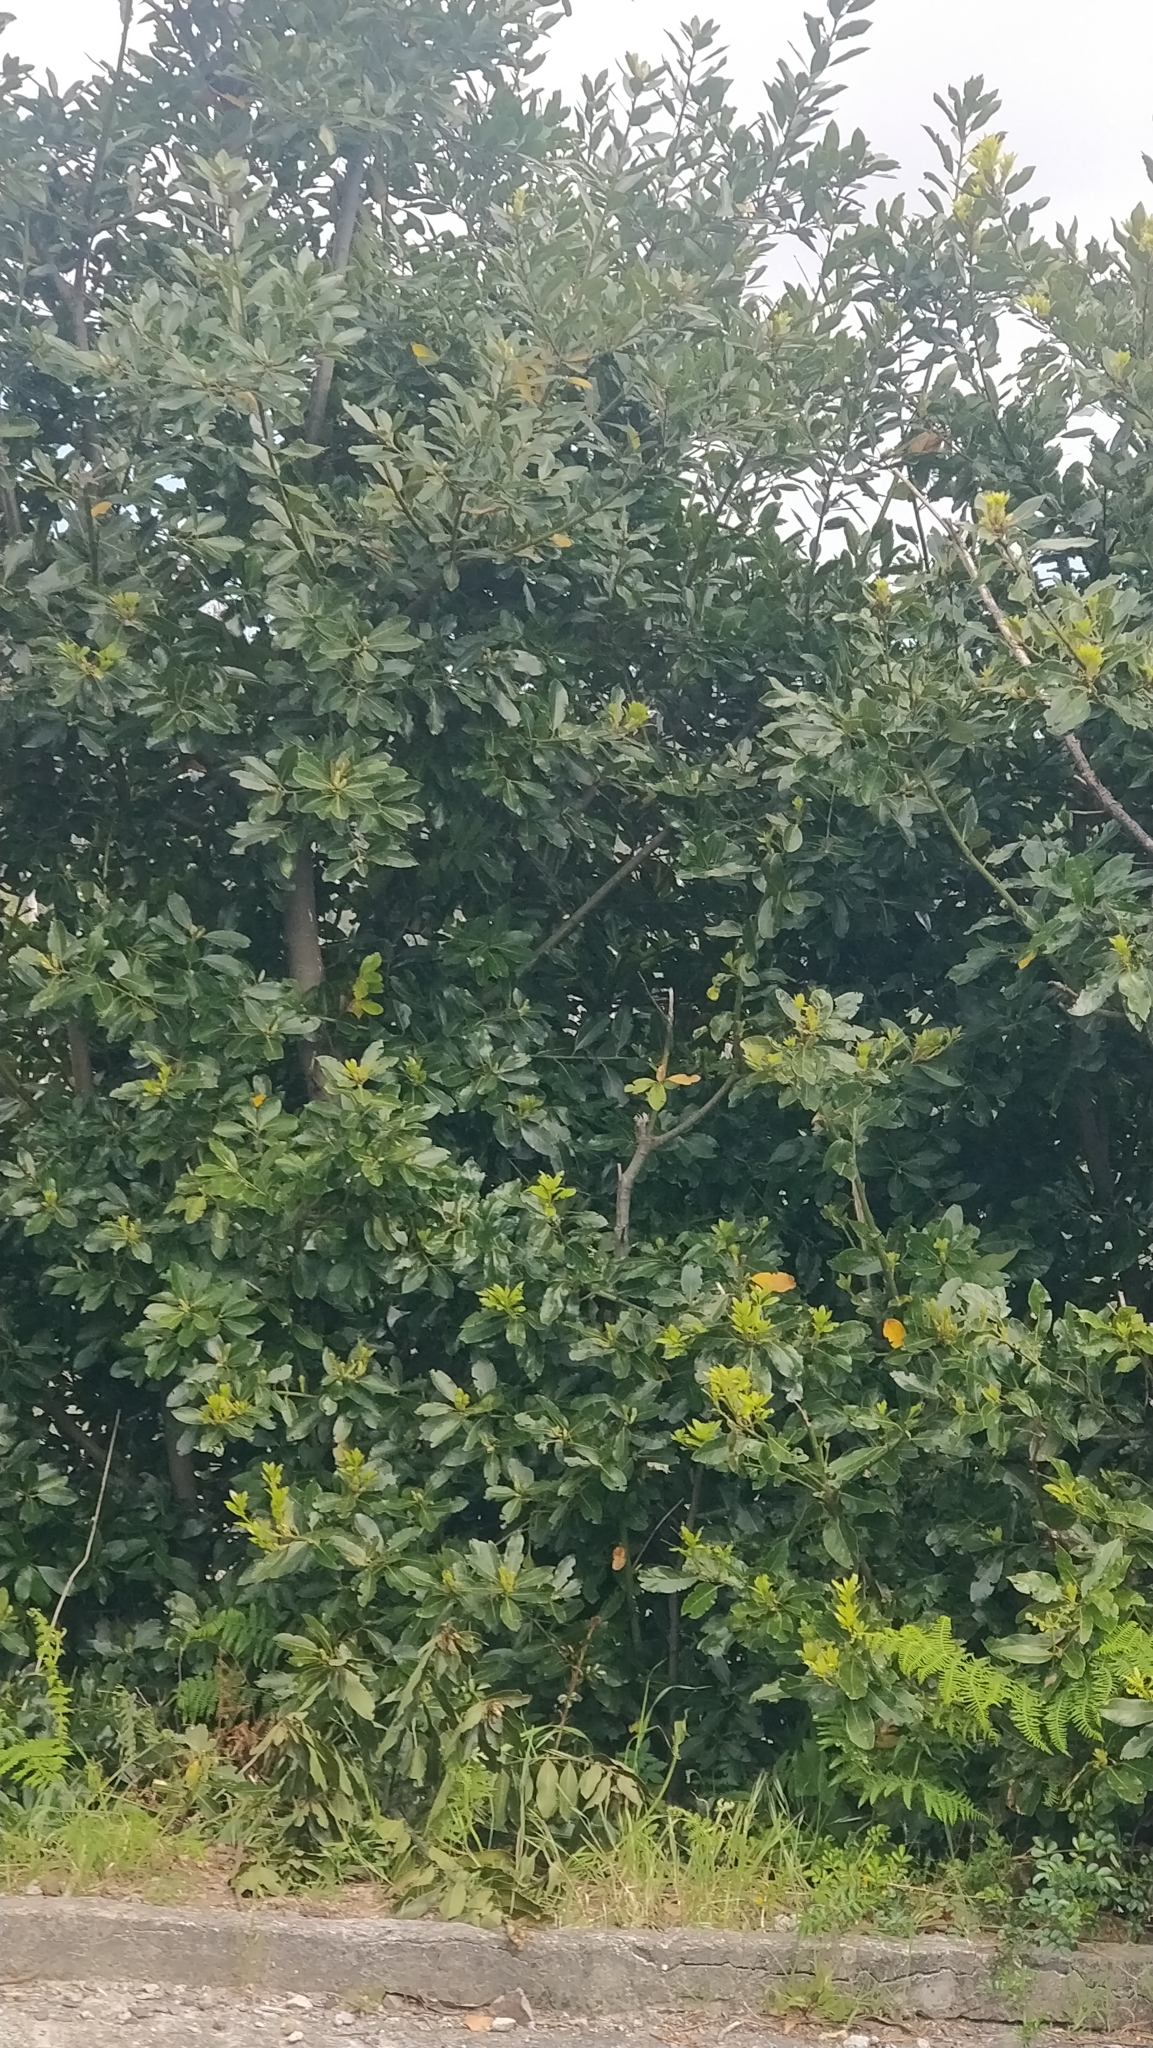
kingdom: Plantae
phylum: Tracheophyta
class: Magnoliopsida
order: Laurales
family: Lauraceae
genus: Laurus
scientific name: Laurus novocanariensis
